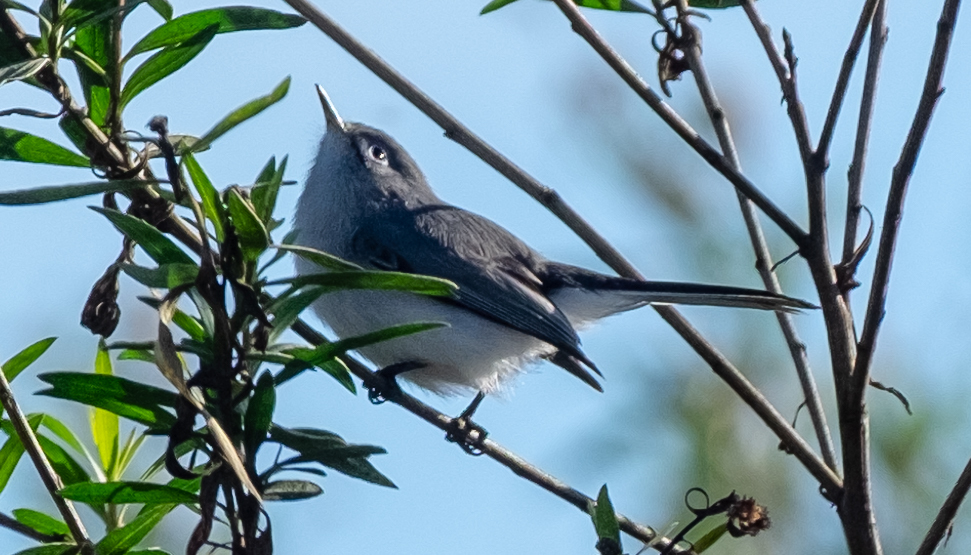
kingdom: Animalia
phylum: Chordata
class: Aves
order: Passeriformes
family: Polioptilidae
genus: Polioptila
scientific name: Polioptila caerulea
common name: Blue-gray gnatcatcher
